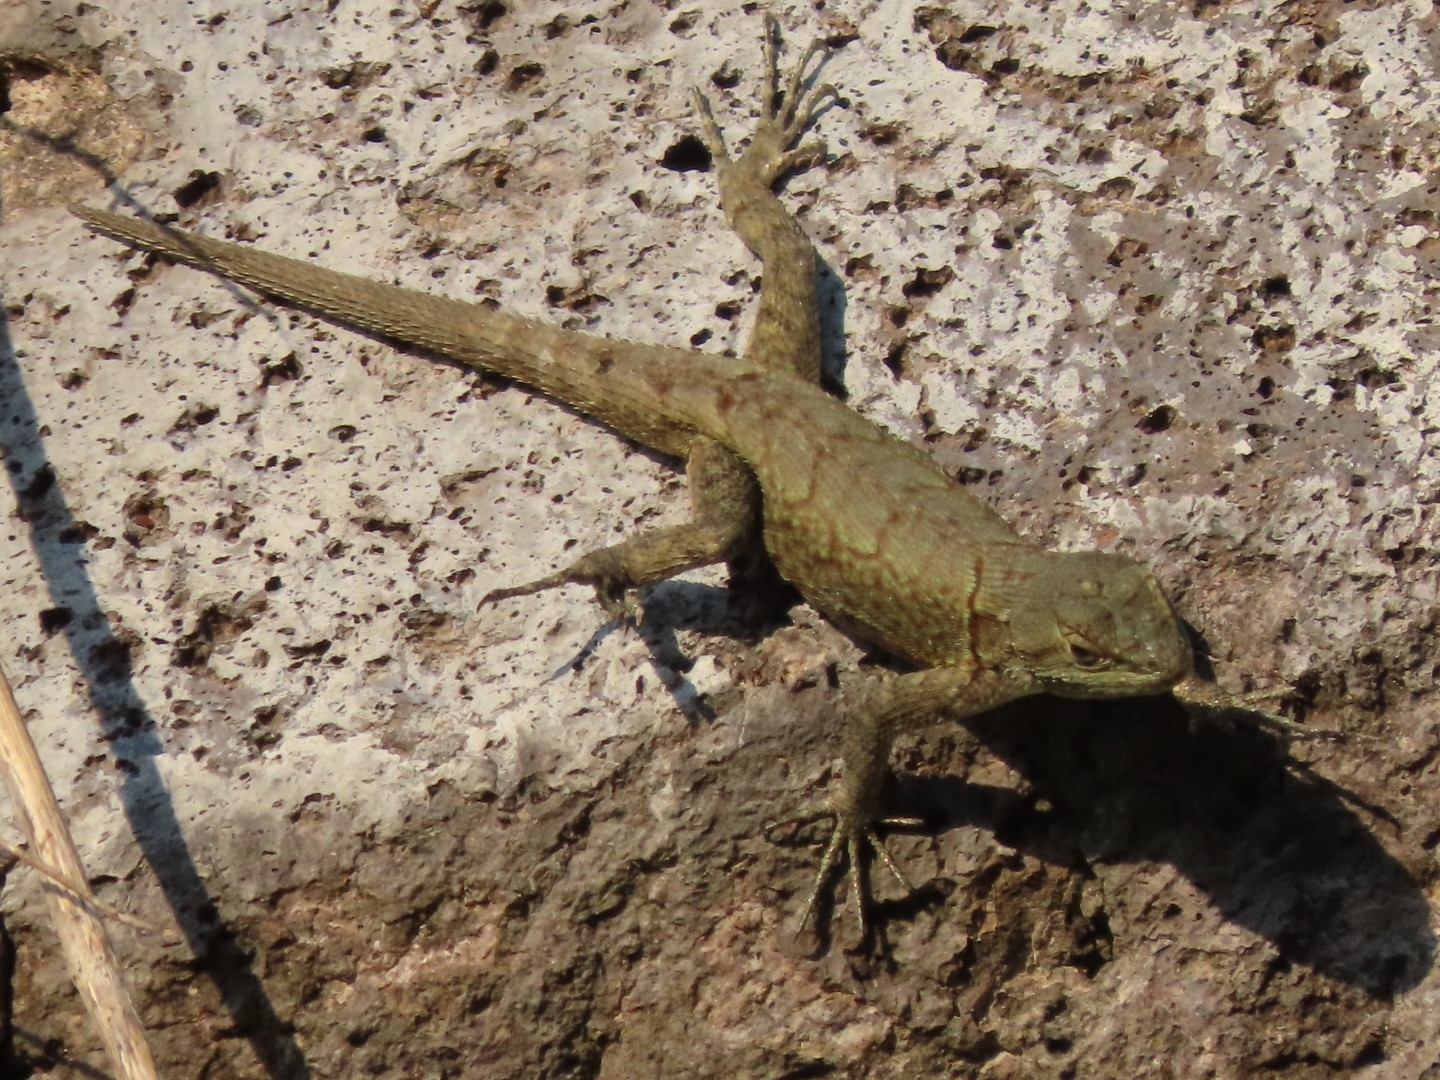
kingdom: Animalia
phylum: Chordata
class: Squamata
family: Phrynosomatidae
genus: Sceloporus
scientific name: Sceloporus grammicus
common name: Mesquite lizard
